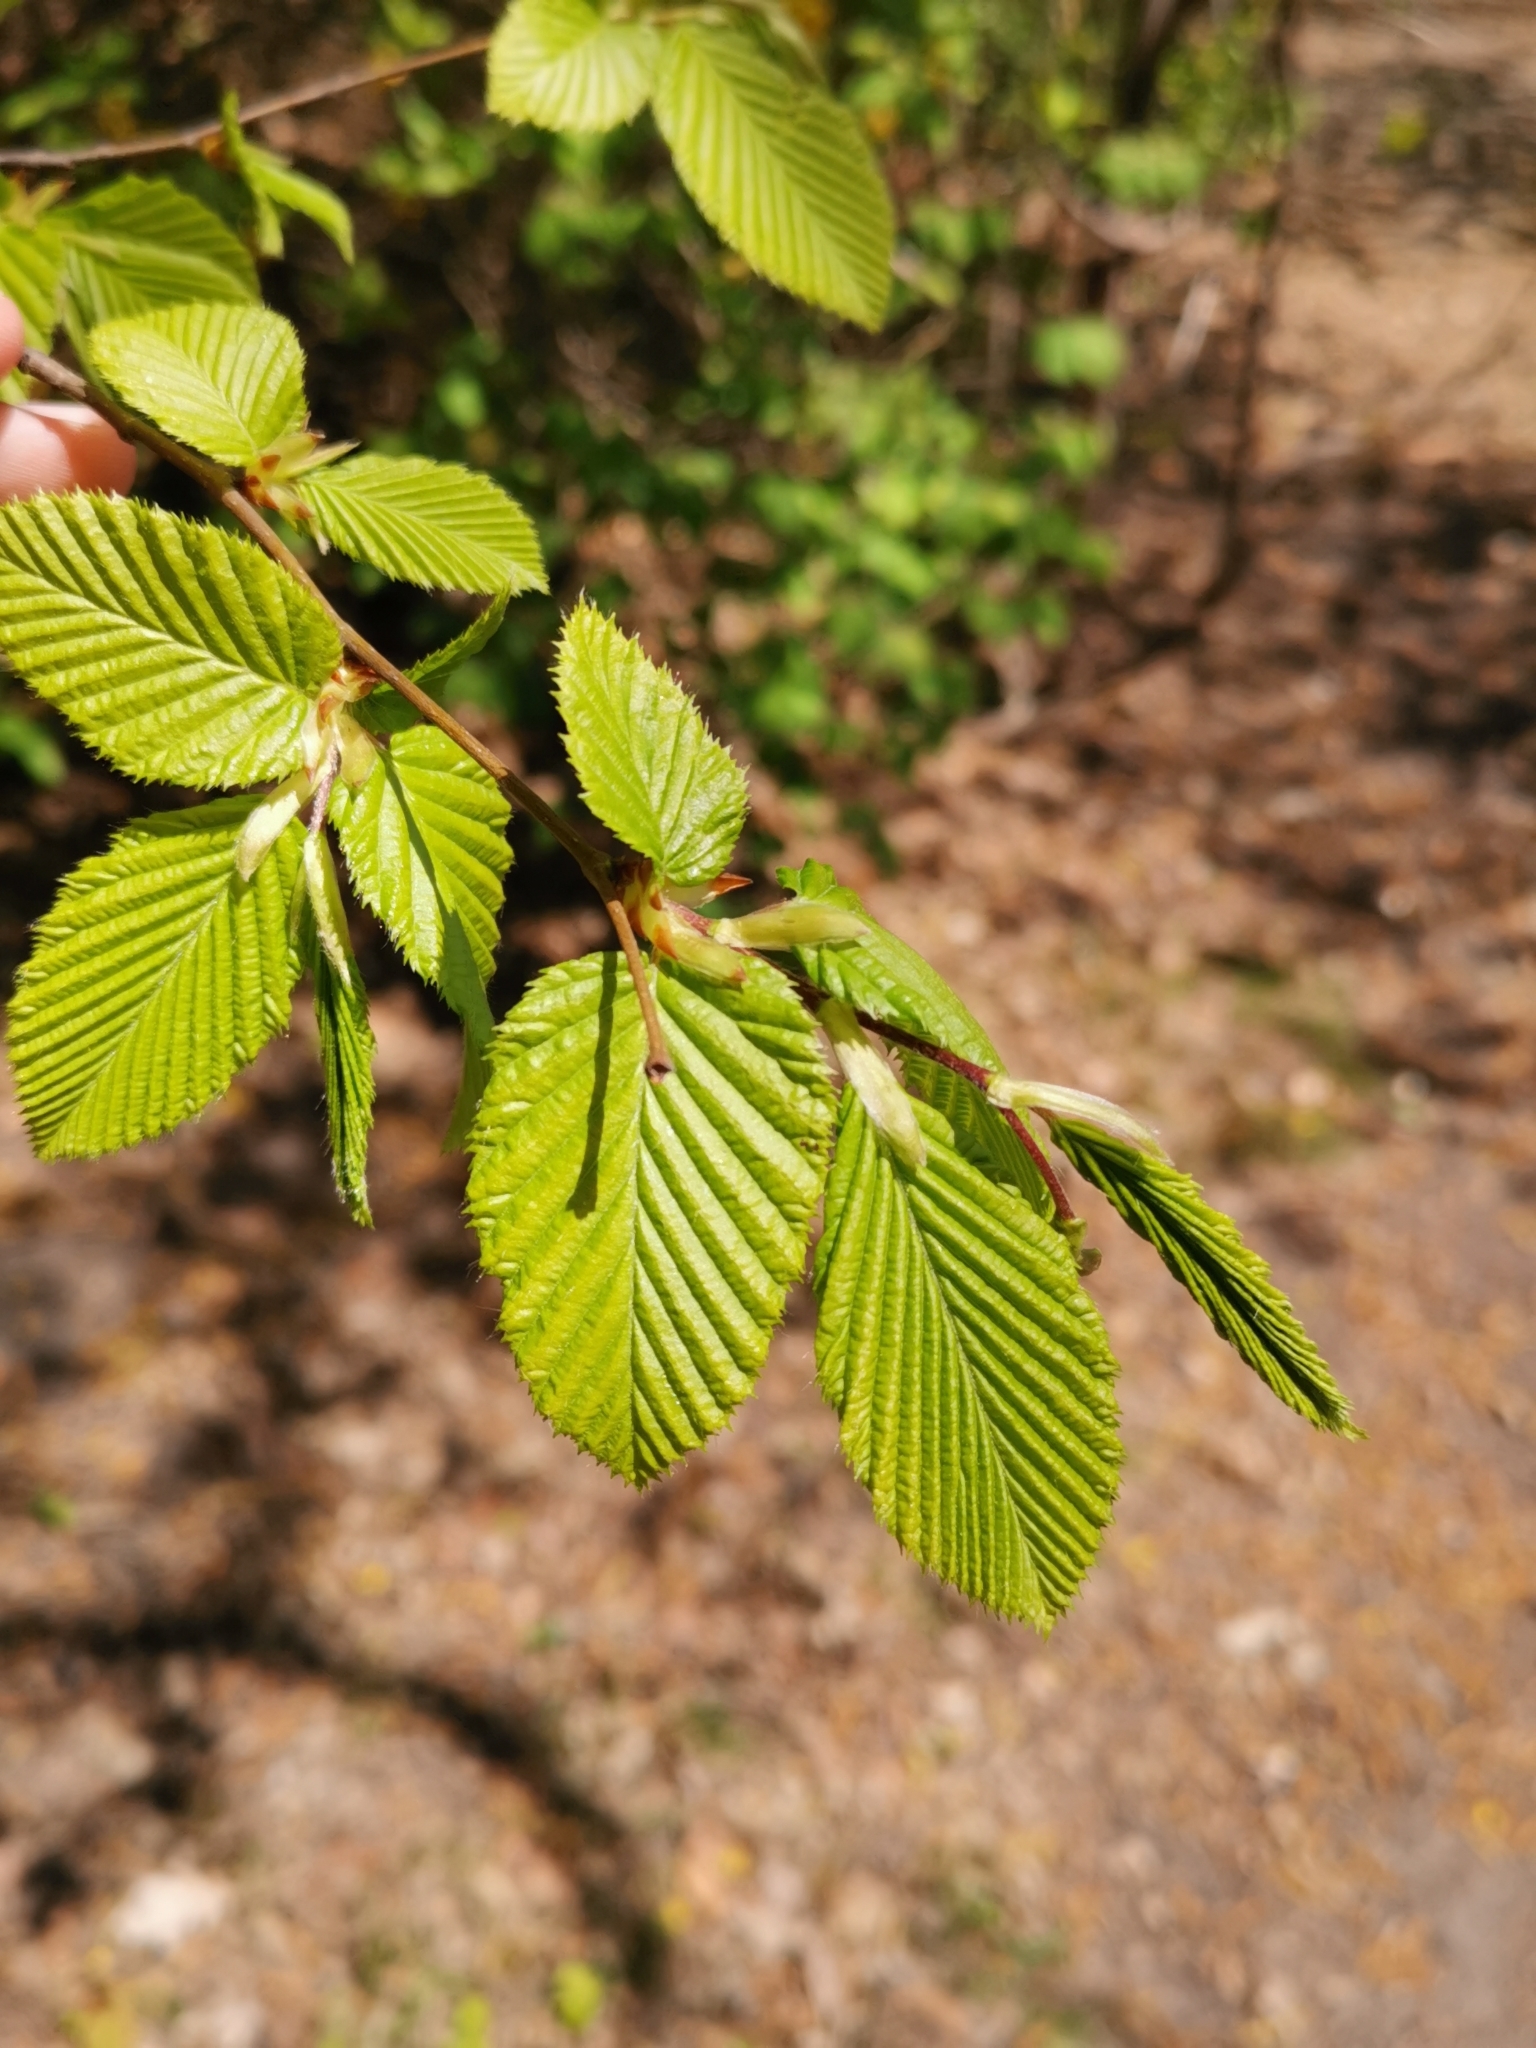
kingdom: Plantae
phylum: Tracheophyta
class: Magnoliopsida
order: Fagales
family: Betulaceae
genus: Carpinus
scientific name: Carpinus betulus
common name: Hornbeam
